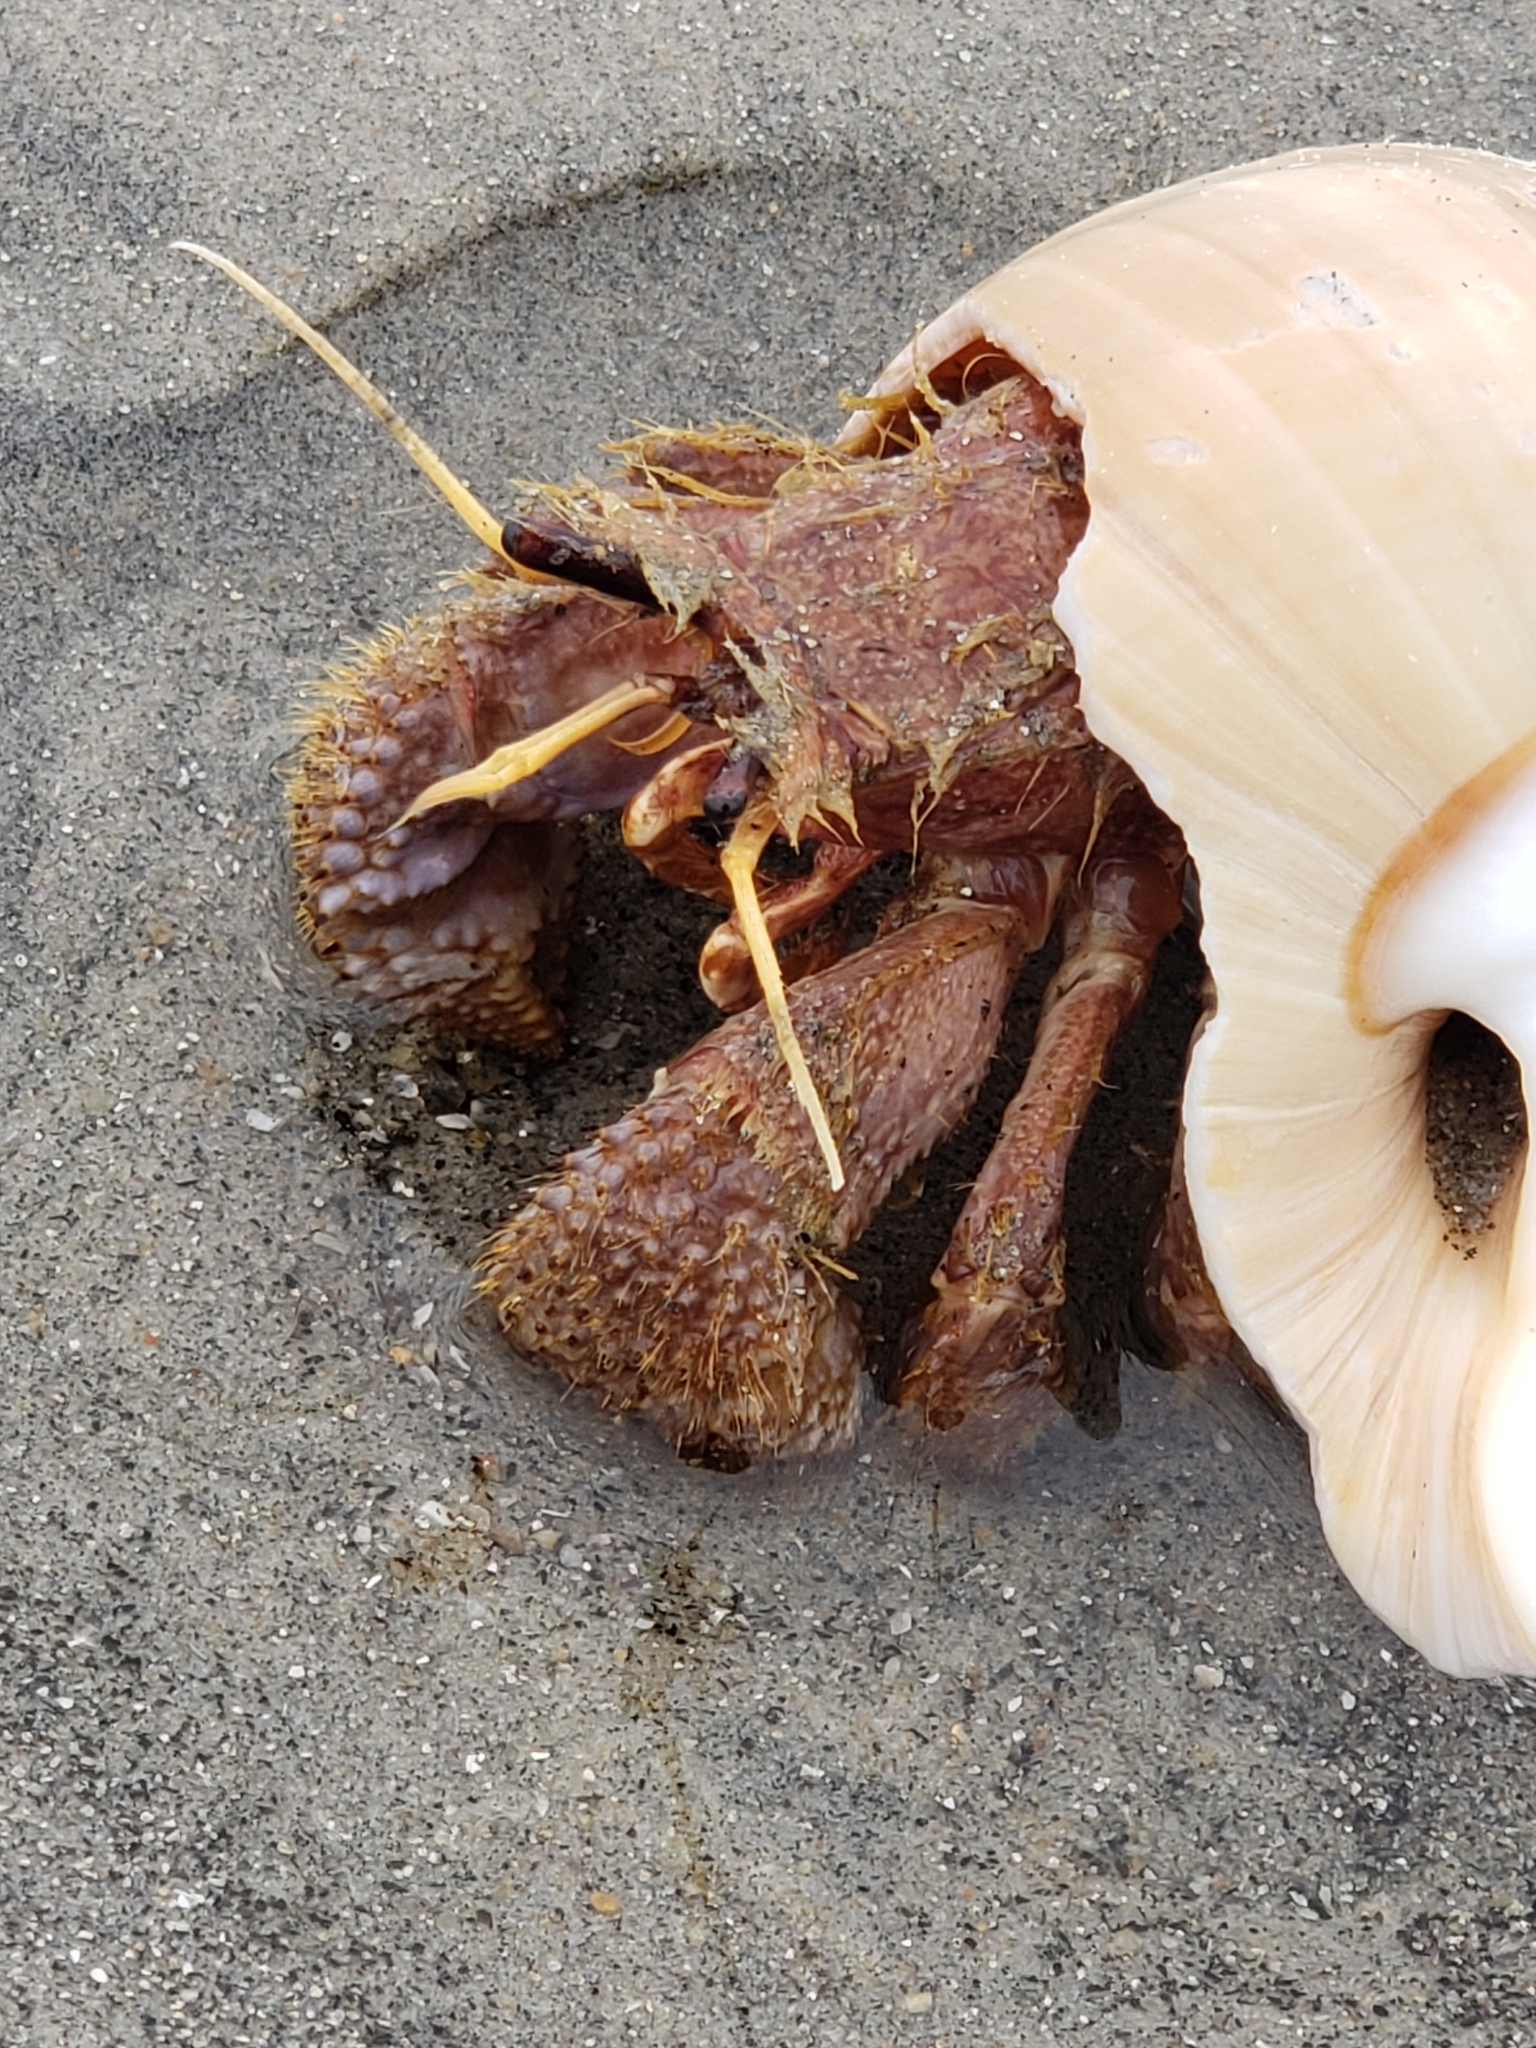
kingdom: Animalia
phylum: Arthropoda
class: Malacostraca
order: Decapoda
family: Diogenidae
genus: Paguristes
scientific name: Paguristes bakeri
